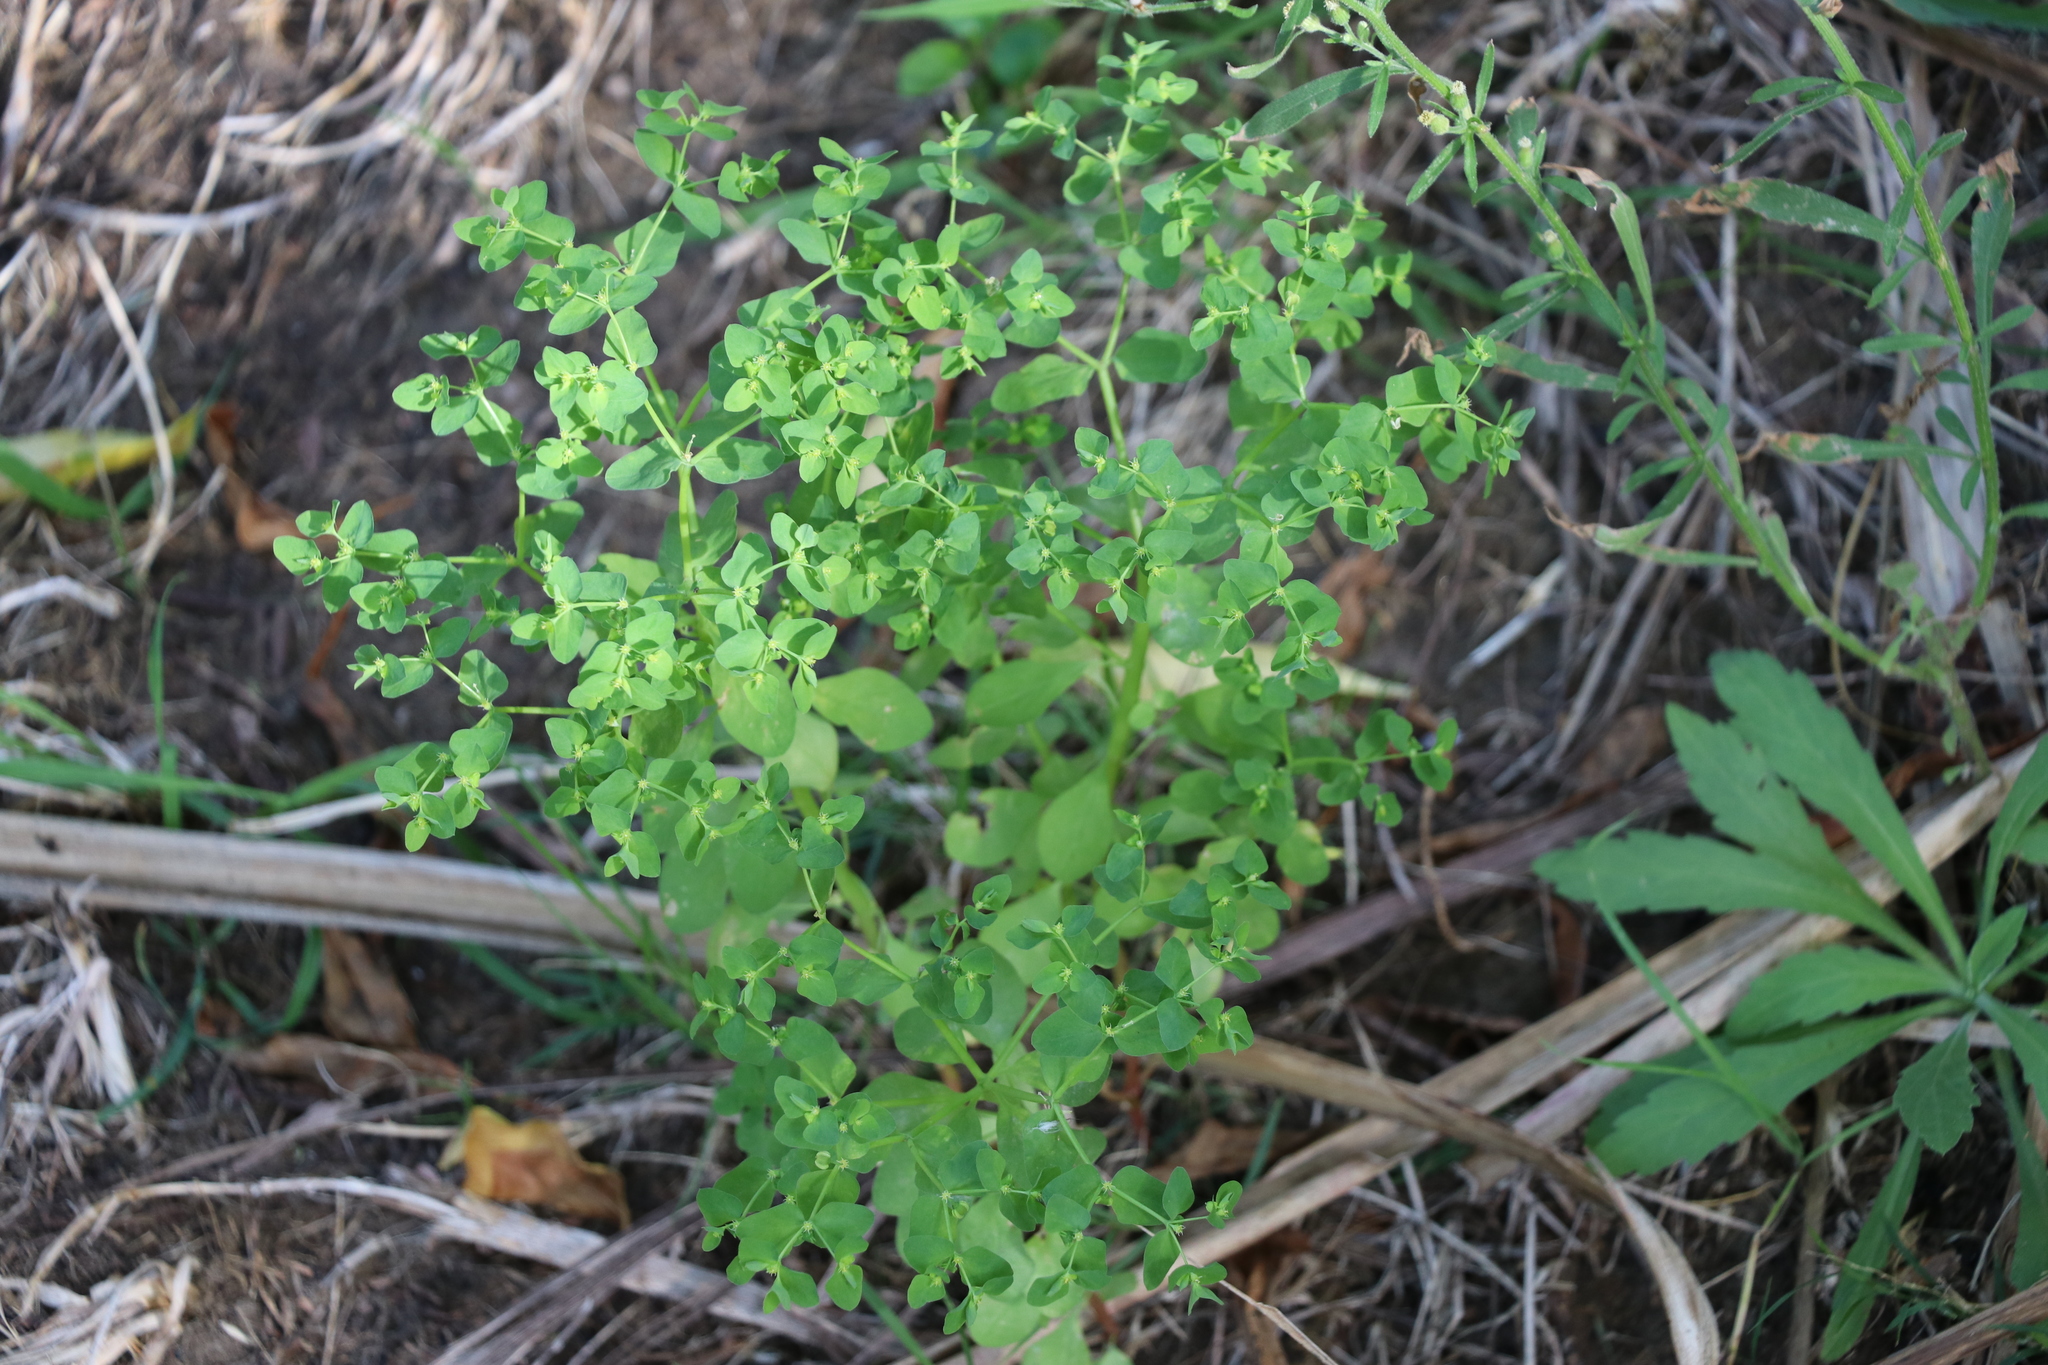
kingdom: Plantae
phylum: Tracheophyta
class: Magnoliopsida
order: Malpighiales
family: Euphorbiaceae
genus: Euphorbia
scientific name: Euphorbia peplus
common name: Petty spurge
